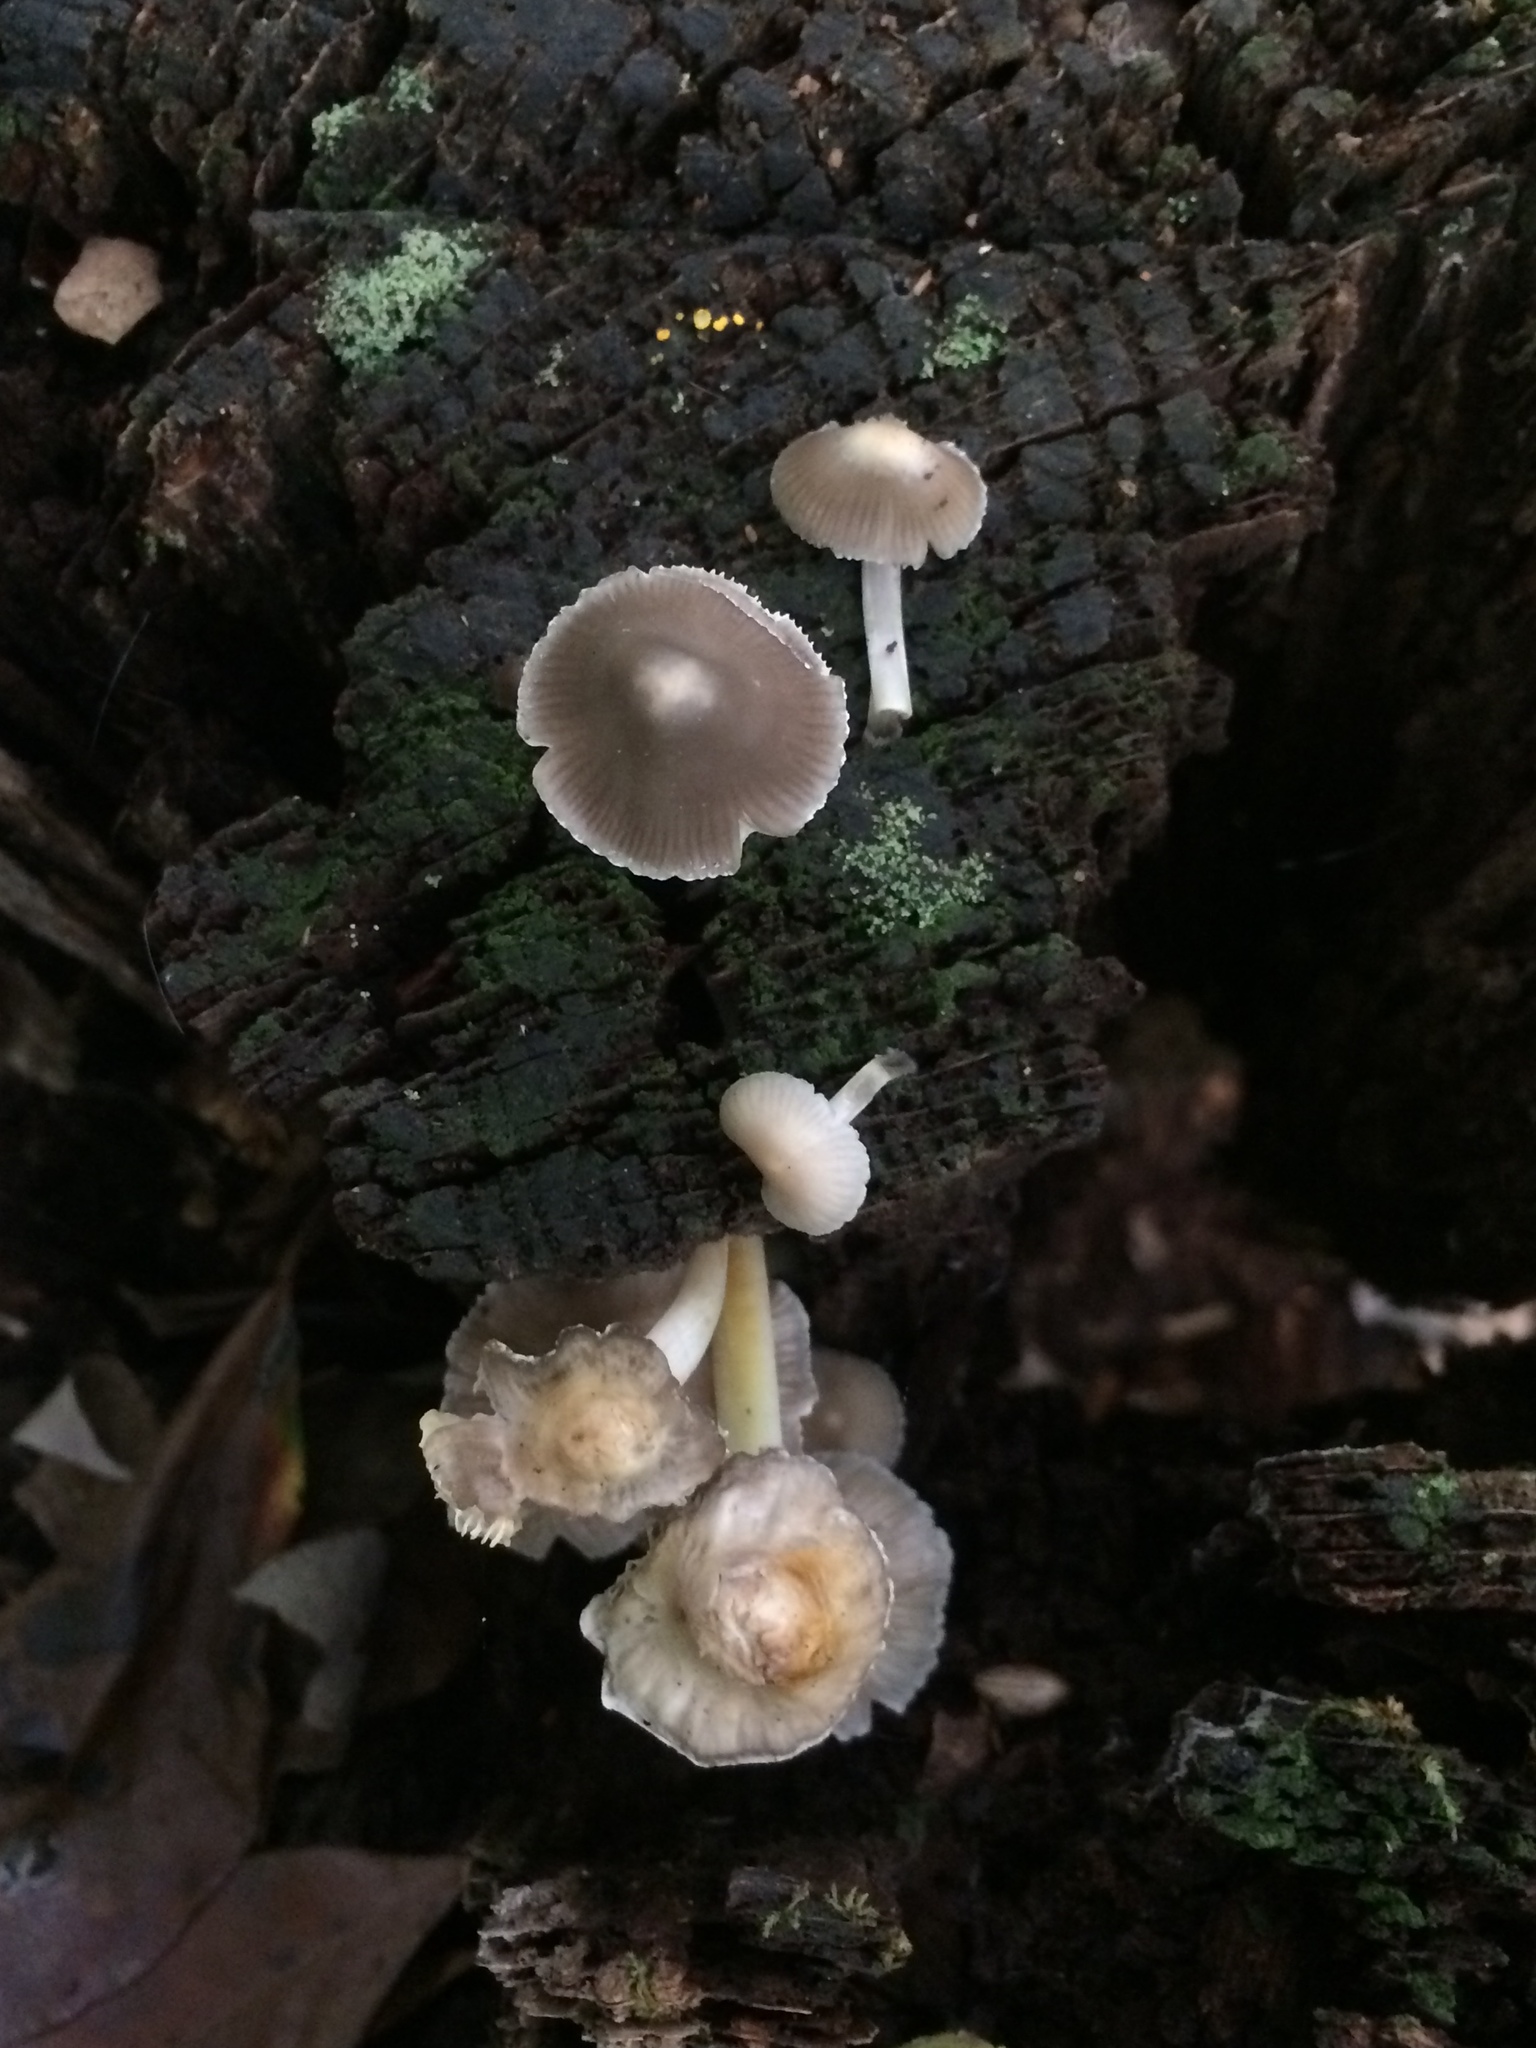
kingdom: Fungi
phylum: Basidiomycota
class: Agaricomycetes
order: Agaricales
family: Mycenaceae
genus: Mycena
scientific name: Mycena inclinata
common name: Clustered bonnet
